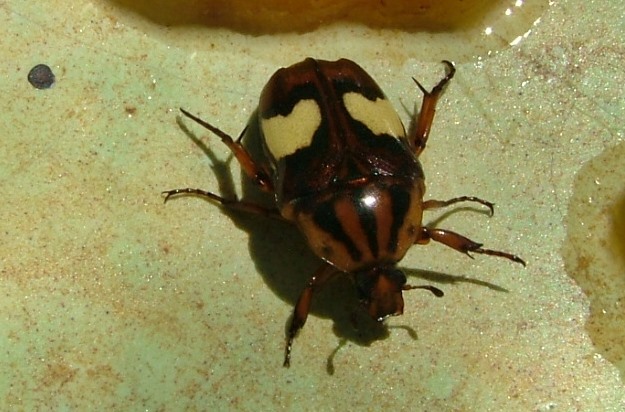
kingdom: Animalia
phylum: Arthropoda
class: Insecta
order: Coleoptera
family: Scarabaeidae
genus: Pedinorrhina
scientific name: Pedinorrhina
